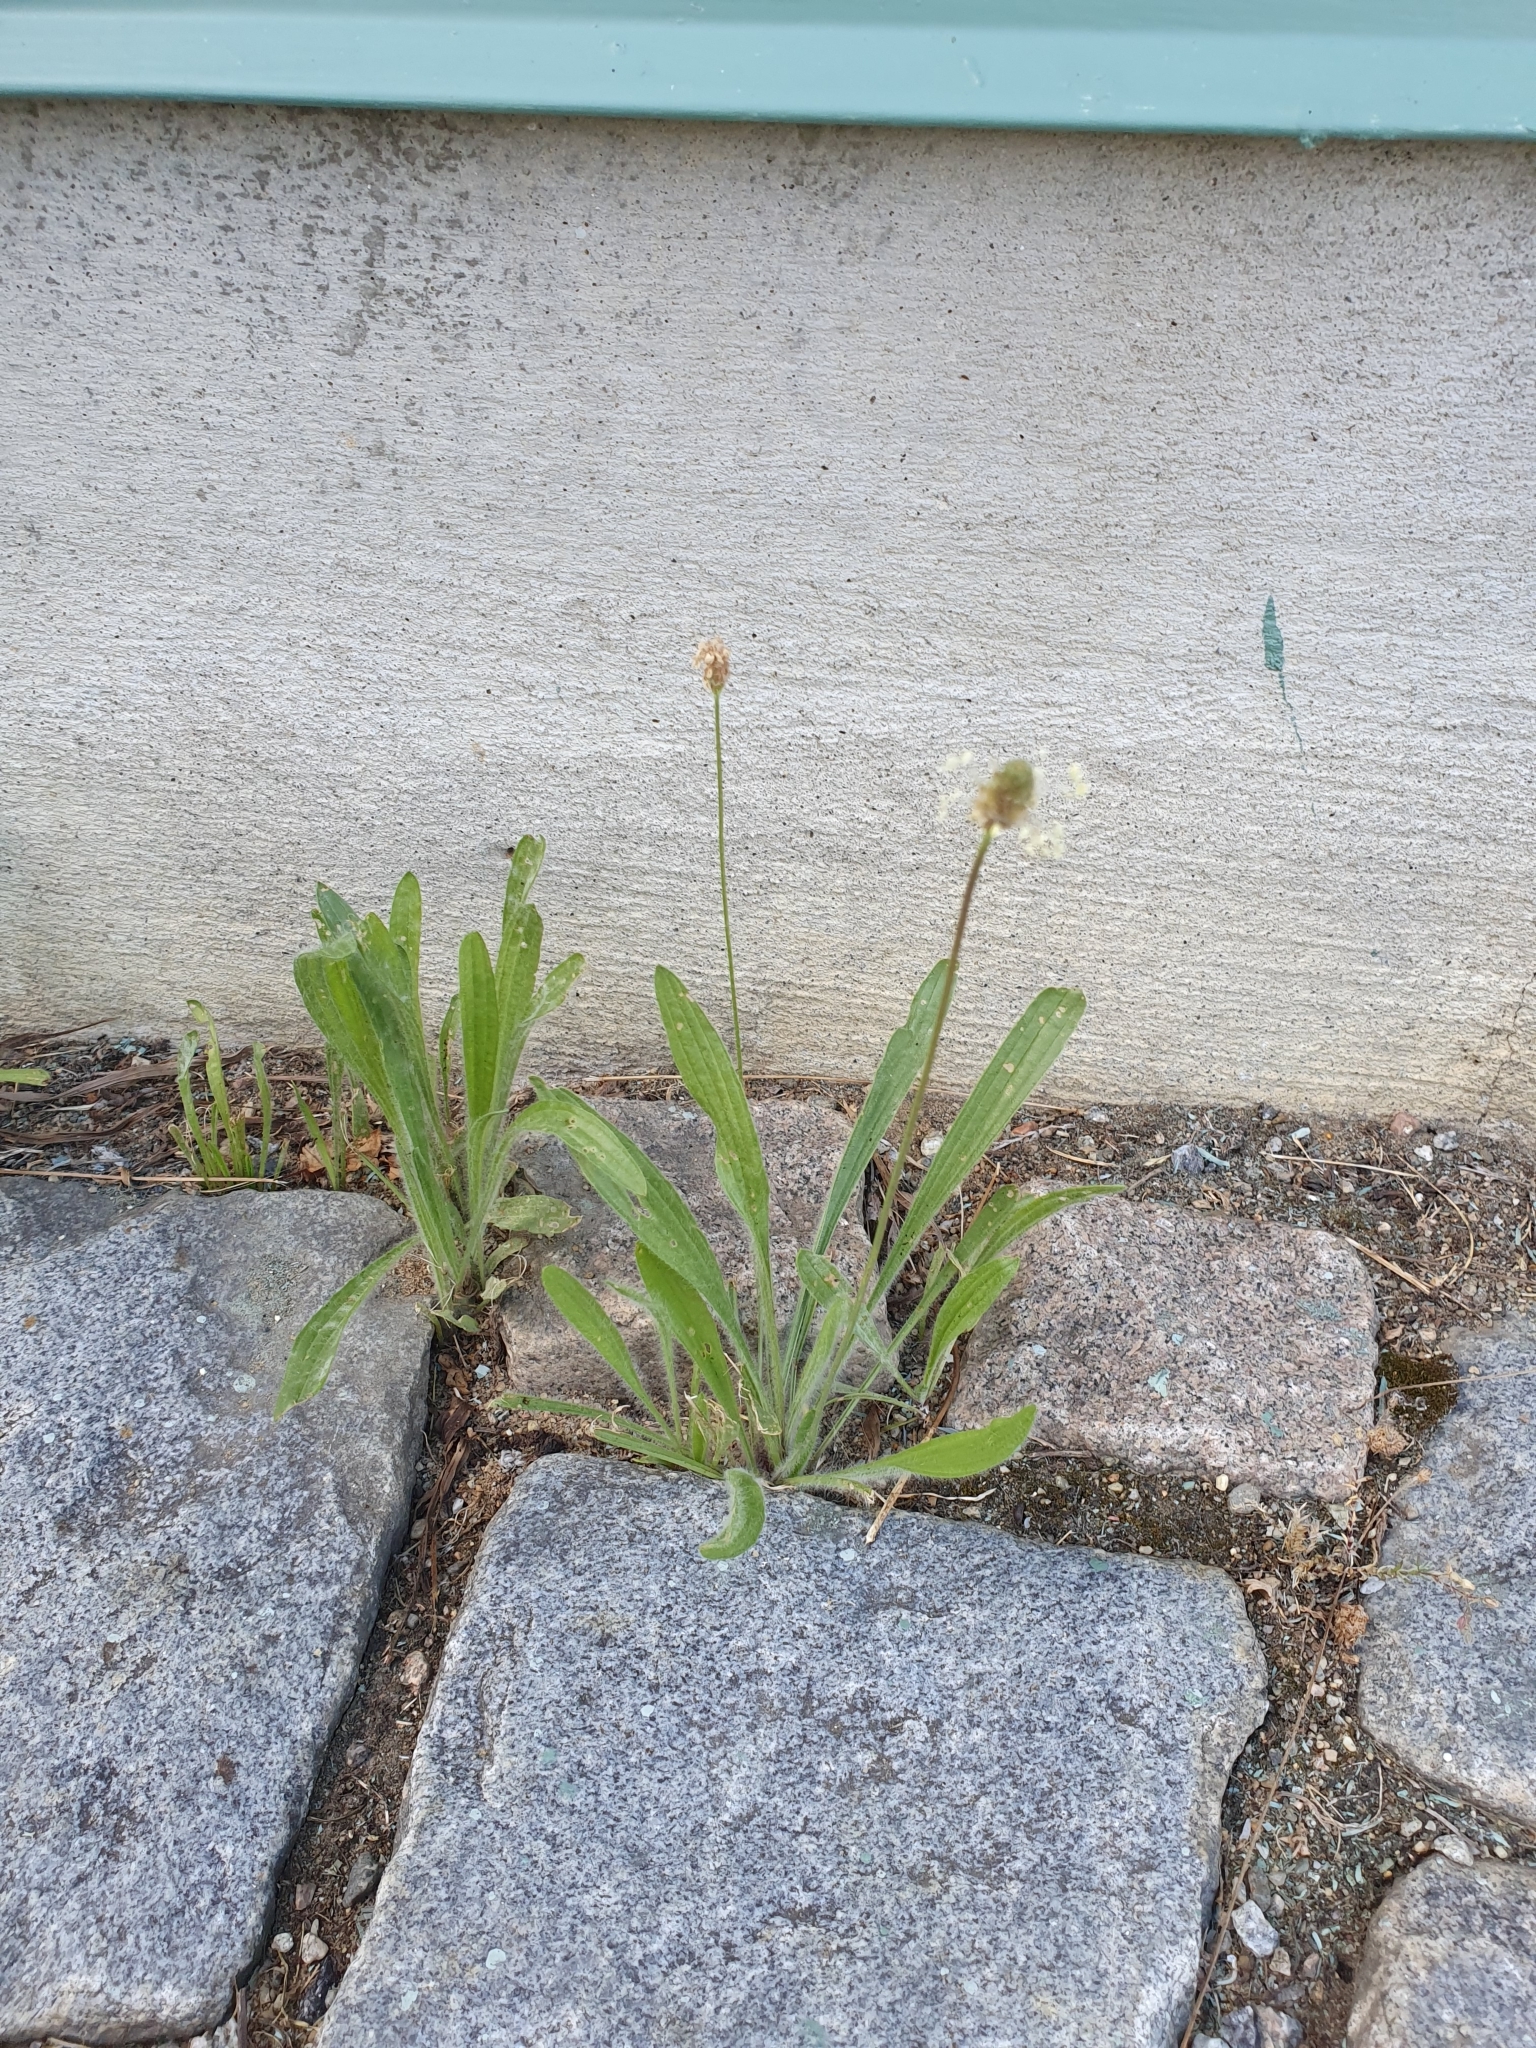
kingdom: Plantae
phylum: Tracheophyta
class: Magnoliopsida
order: Lamiales
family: Plantaginaceae
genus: Plantago
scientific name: Plantago lanceolata
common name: Ribwort plantain
